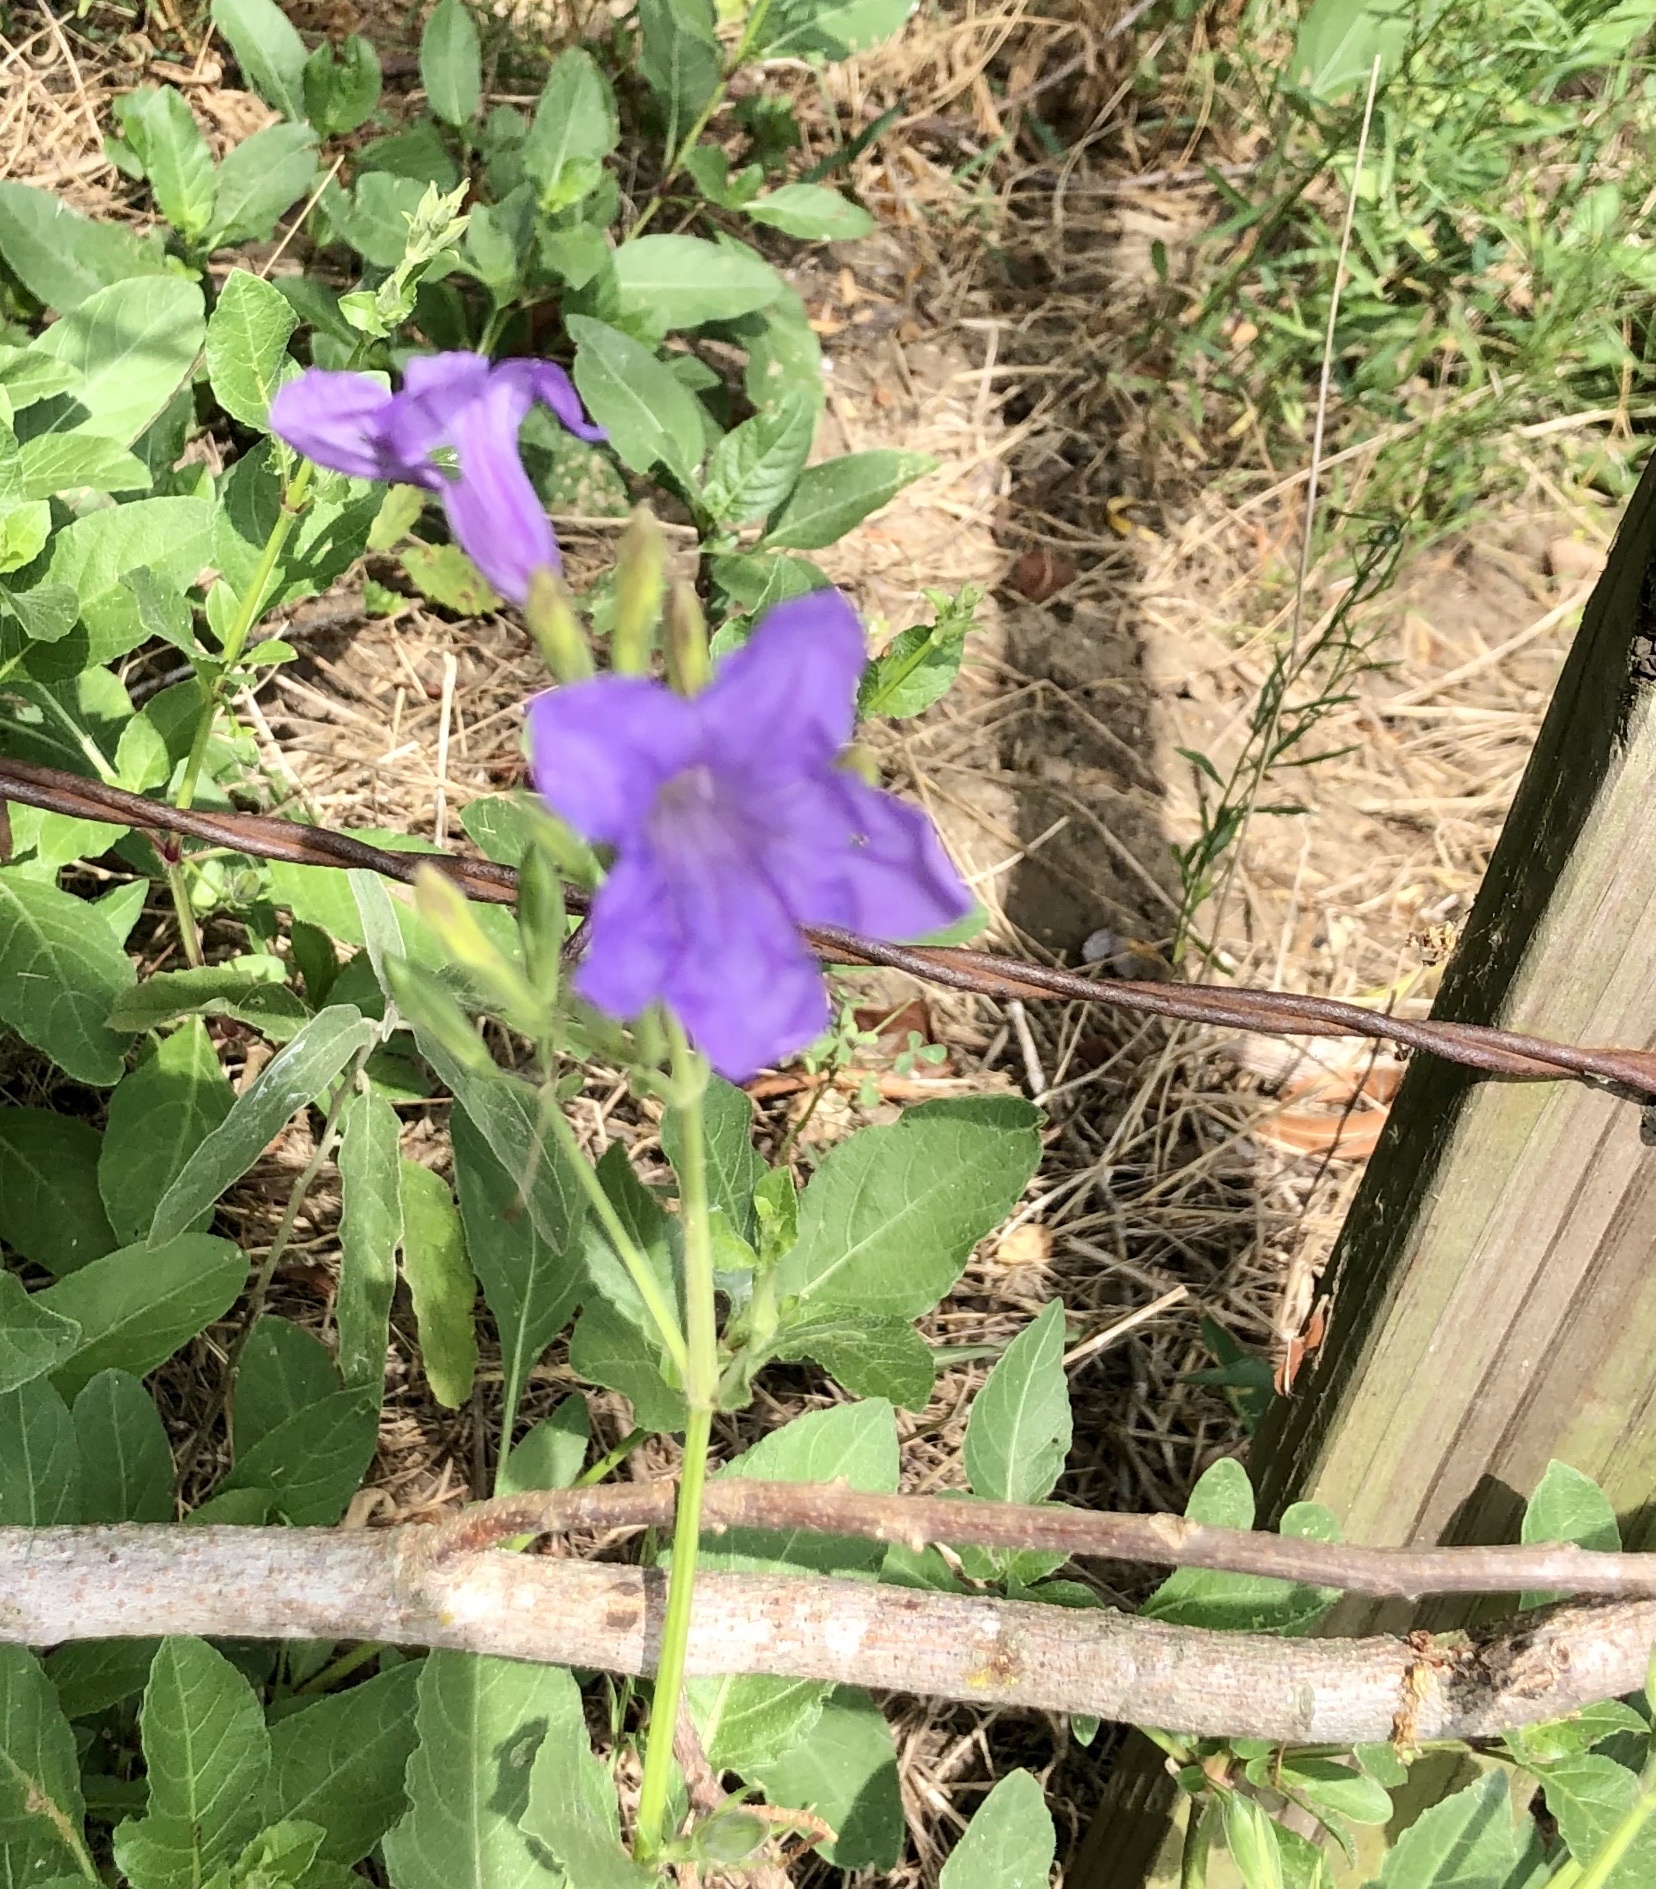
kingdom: Plantae
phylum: Tracheophyta
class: Magnoliopsida
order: Lamiales
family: Acanthaceae
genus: Ruellia
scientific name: Ruellia ciliatiflora
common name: Hairyflower wild petunia
